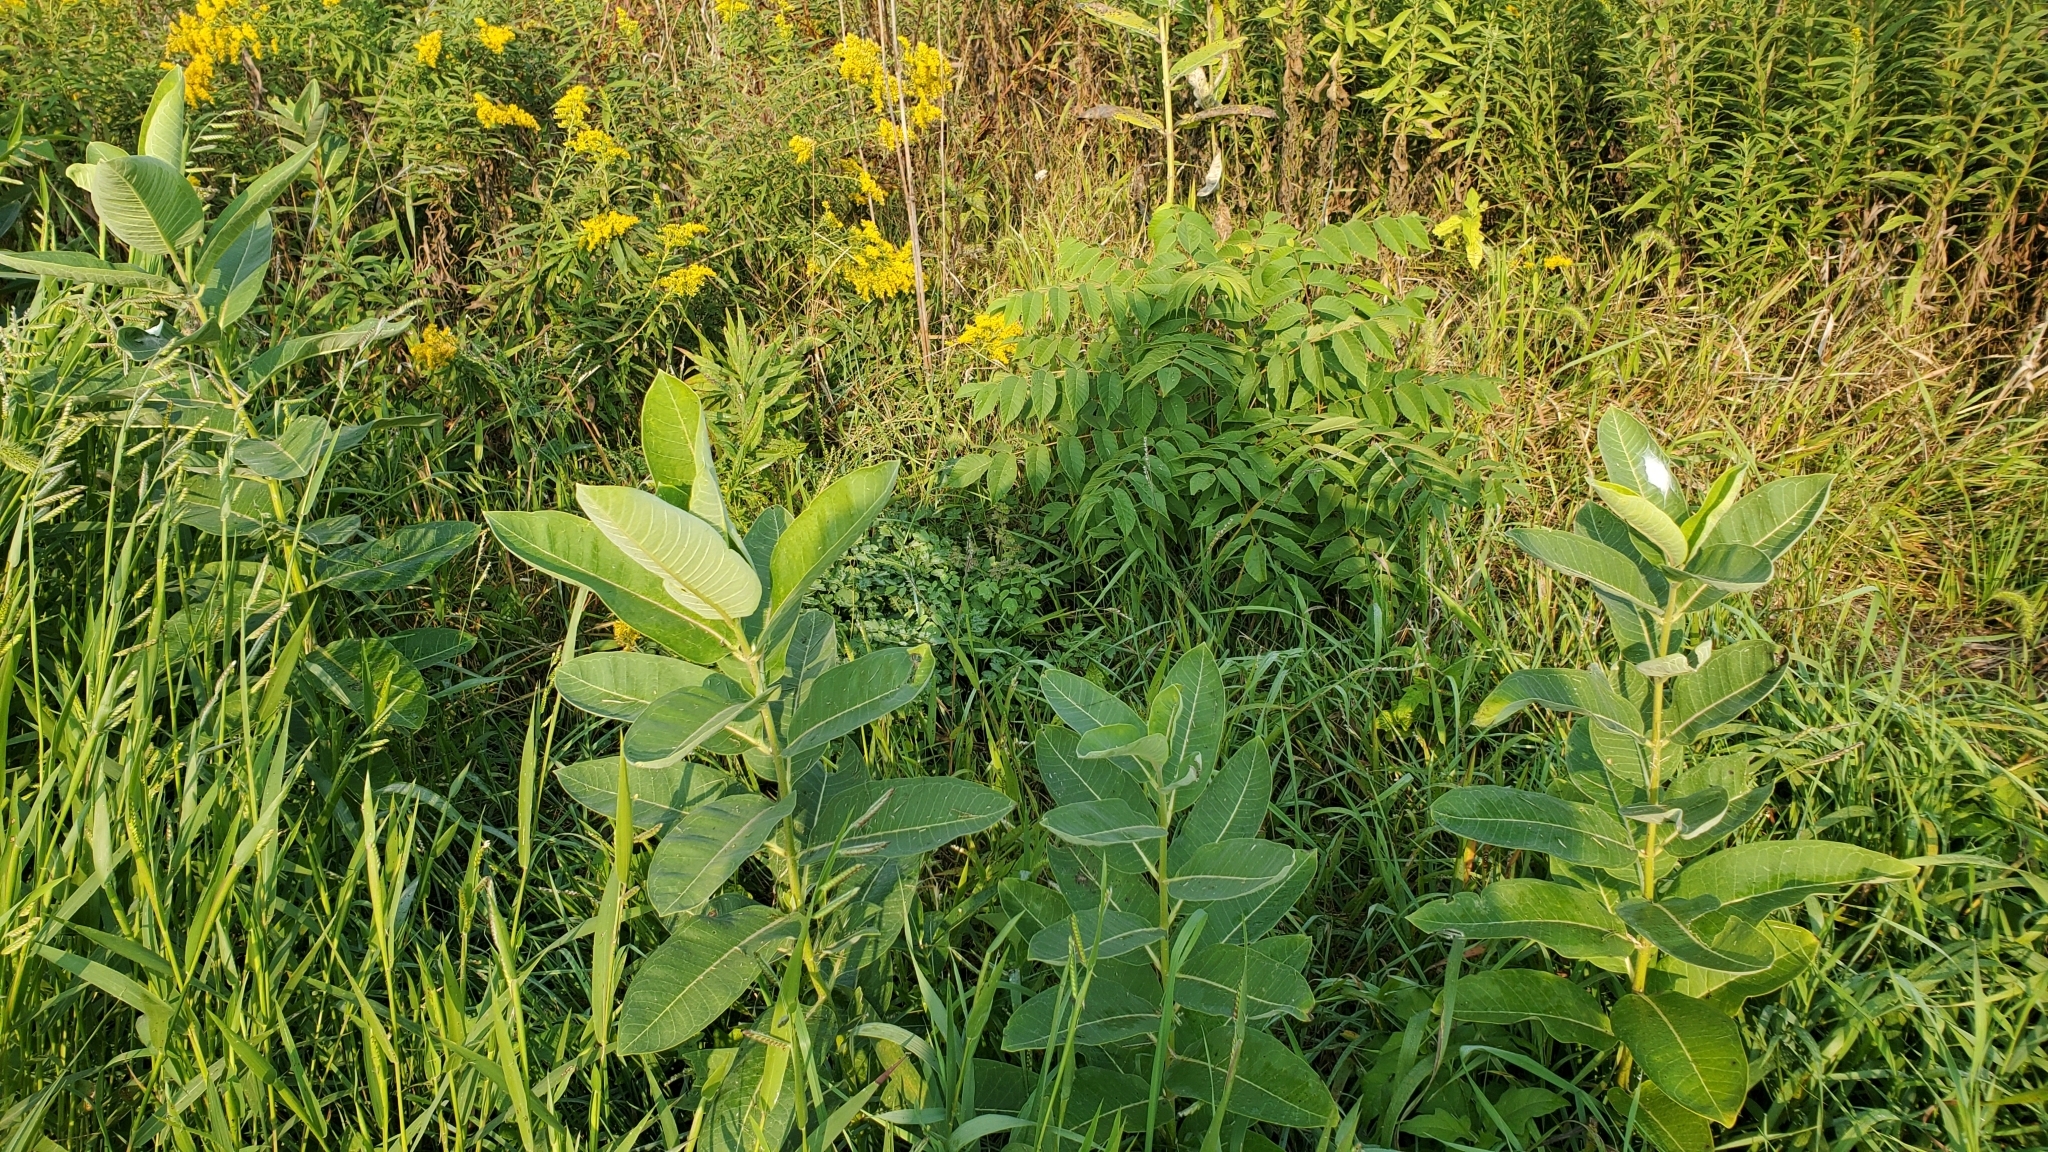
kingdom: Plantae
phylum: Tracheophyta
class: Magnoliopsida
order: Gentianales
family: Apocynaceae
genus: Asclepias
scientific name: Asclepias syriaca
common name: Common milkweed
